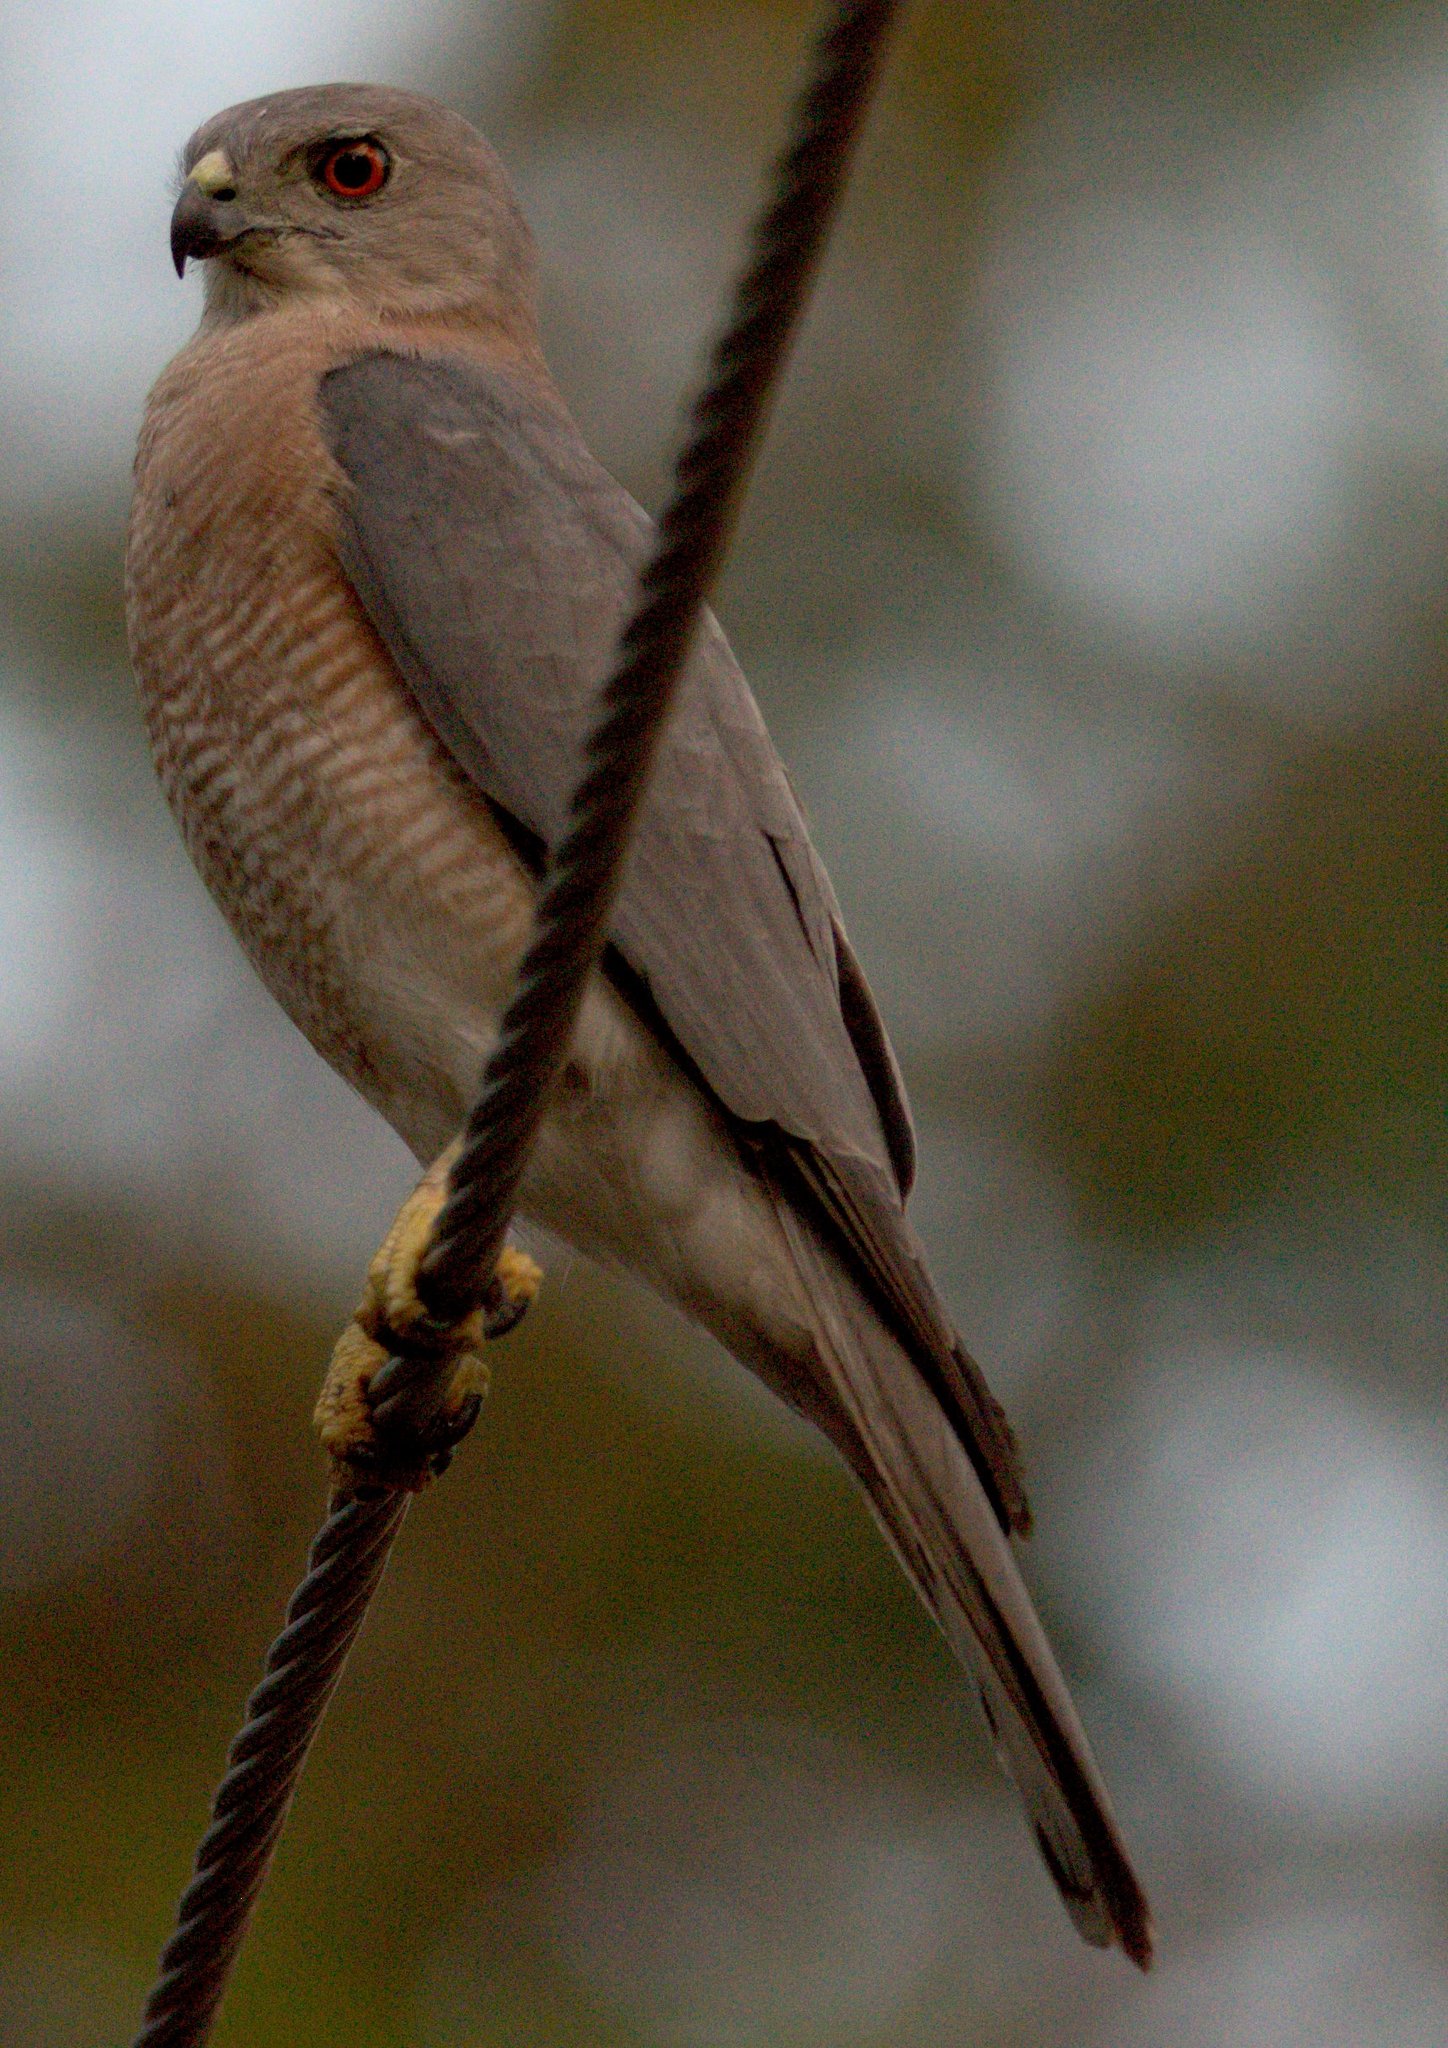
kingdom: Animalia
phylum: Chordata
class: Aves
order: Accipitriformes
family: Accipitridae
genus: Accipiter
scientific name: Accipiter badius
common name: Shikra
